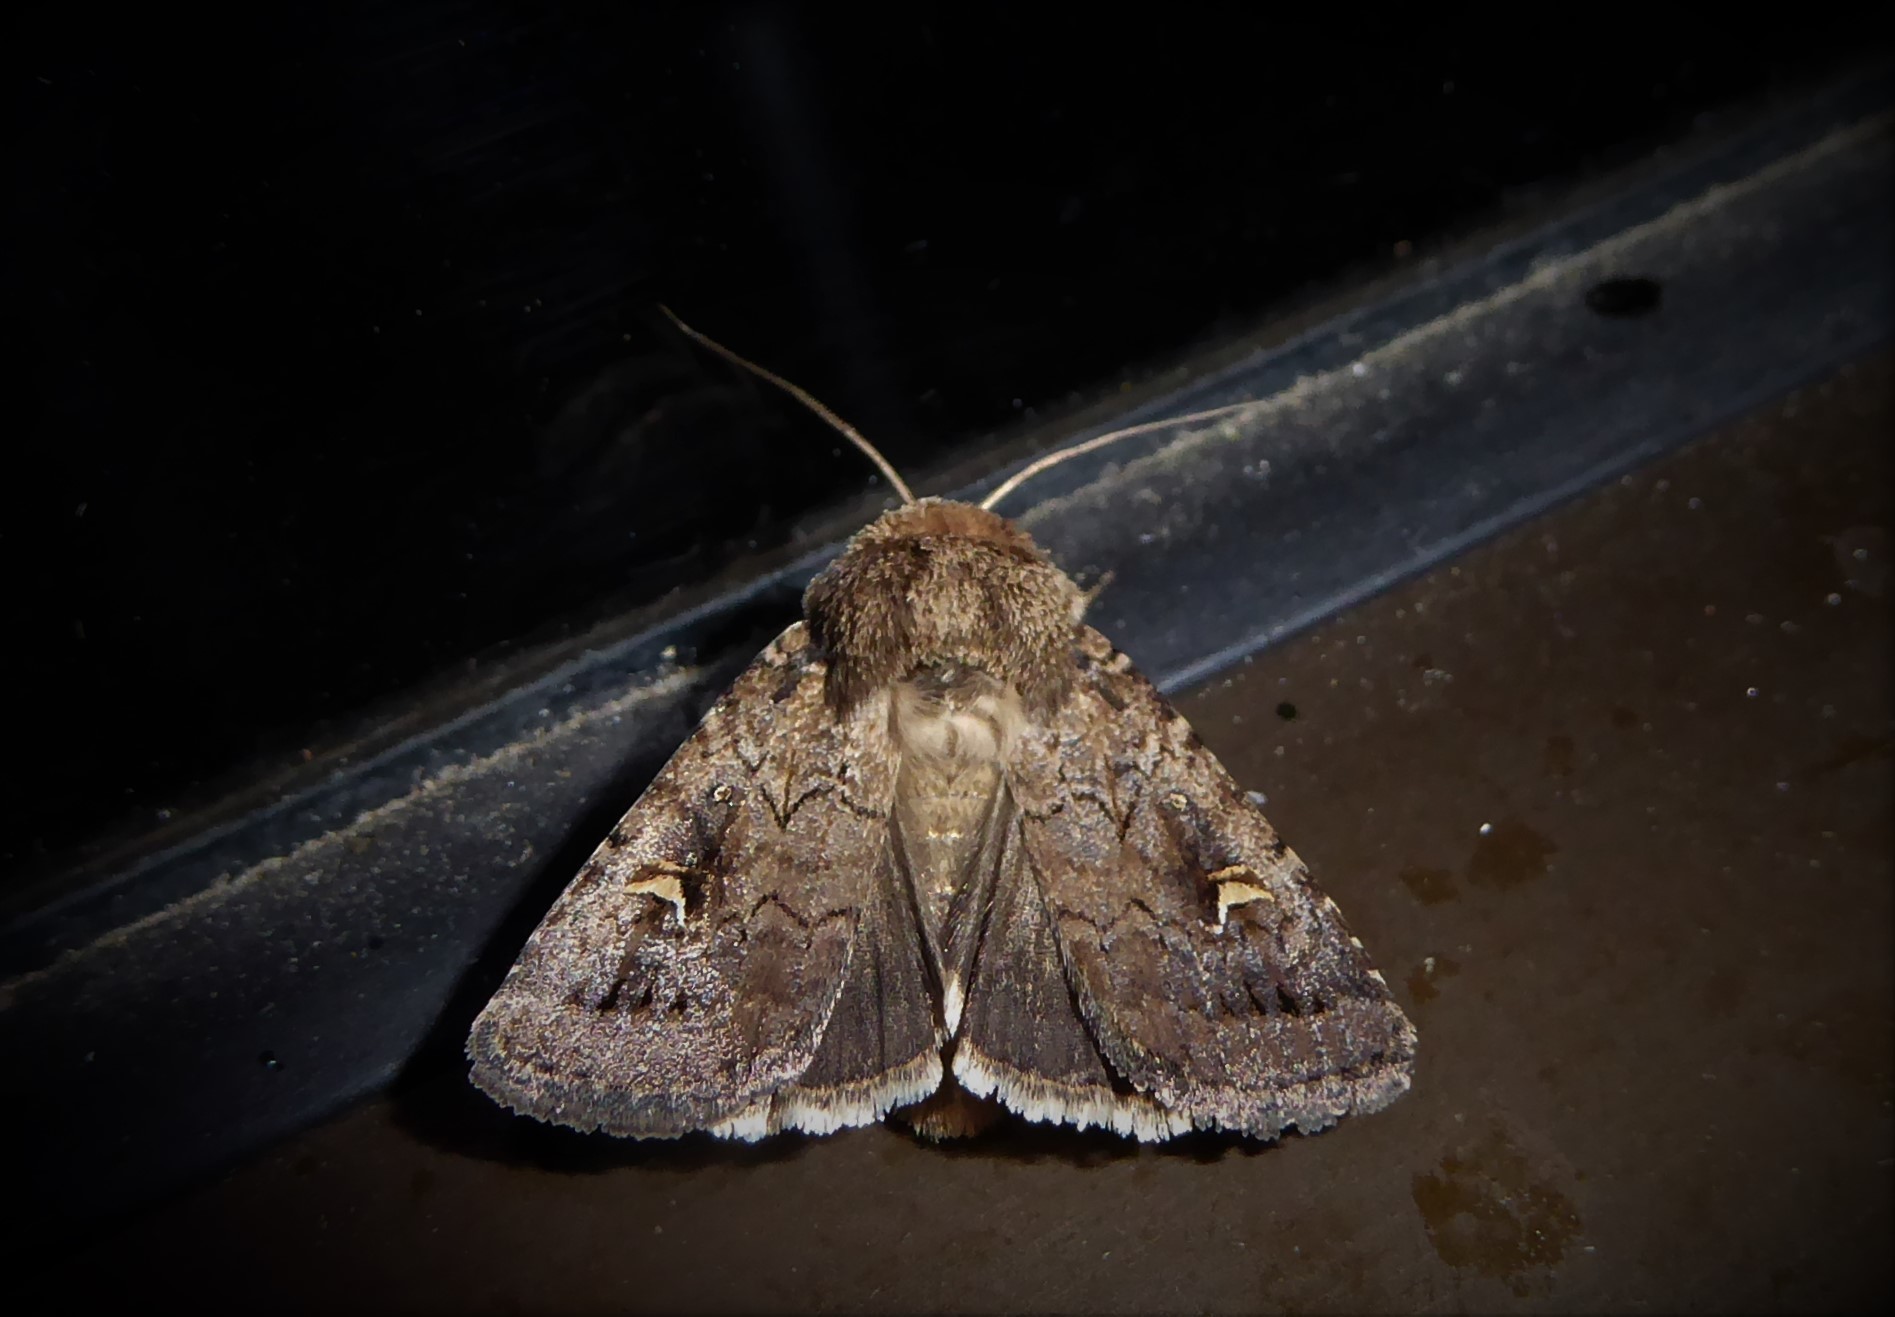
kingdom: Animalia
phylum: Arthropoda
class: Insecta
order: Lepidoptera
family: Noctuidae
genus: Proteuxoa
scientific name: Proteuxoa tetronycha
